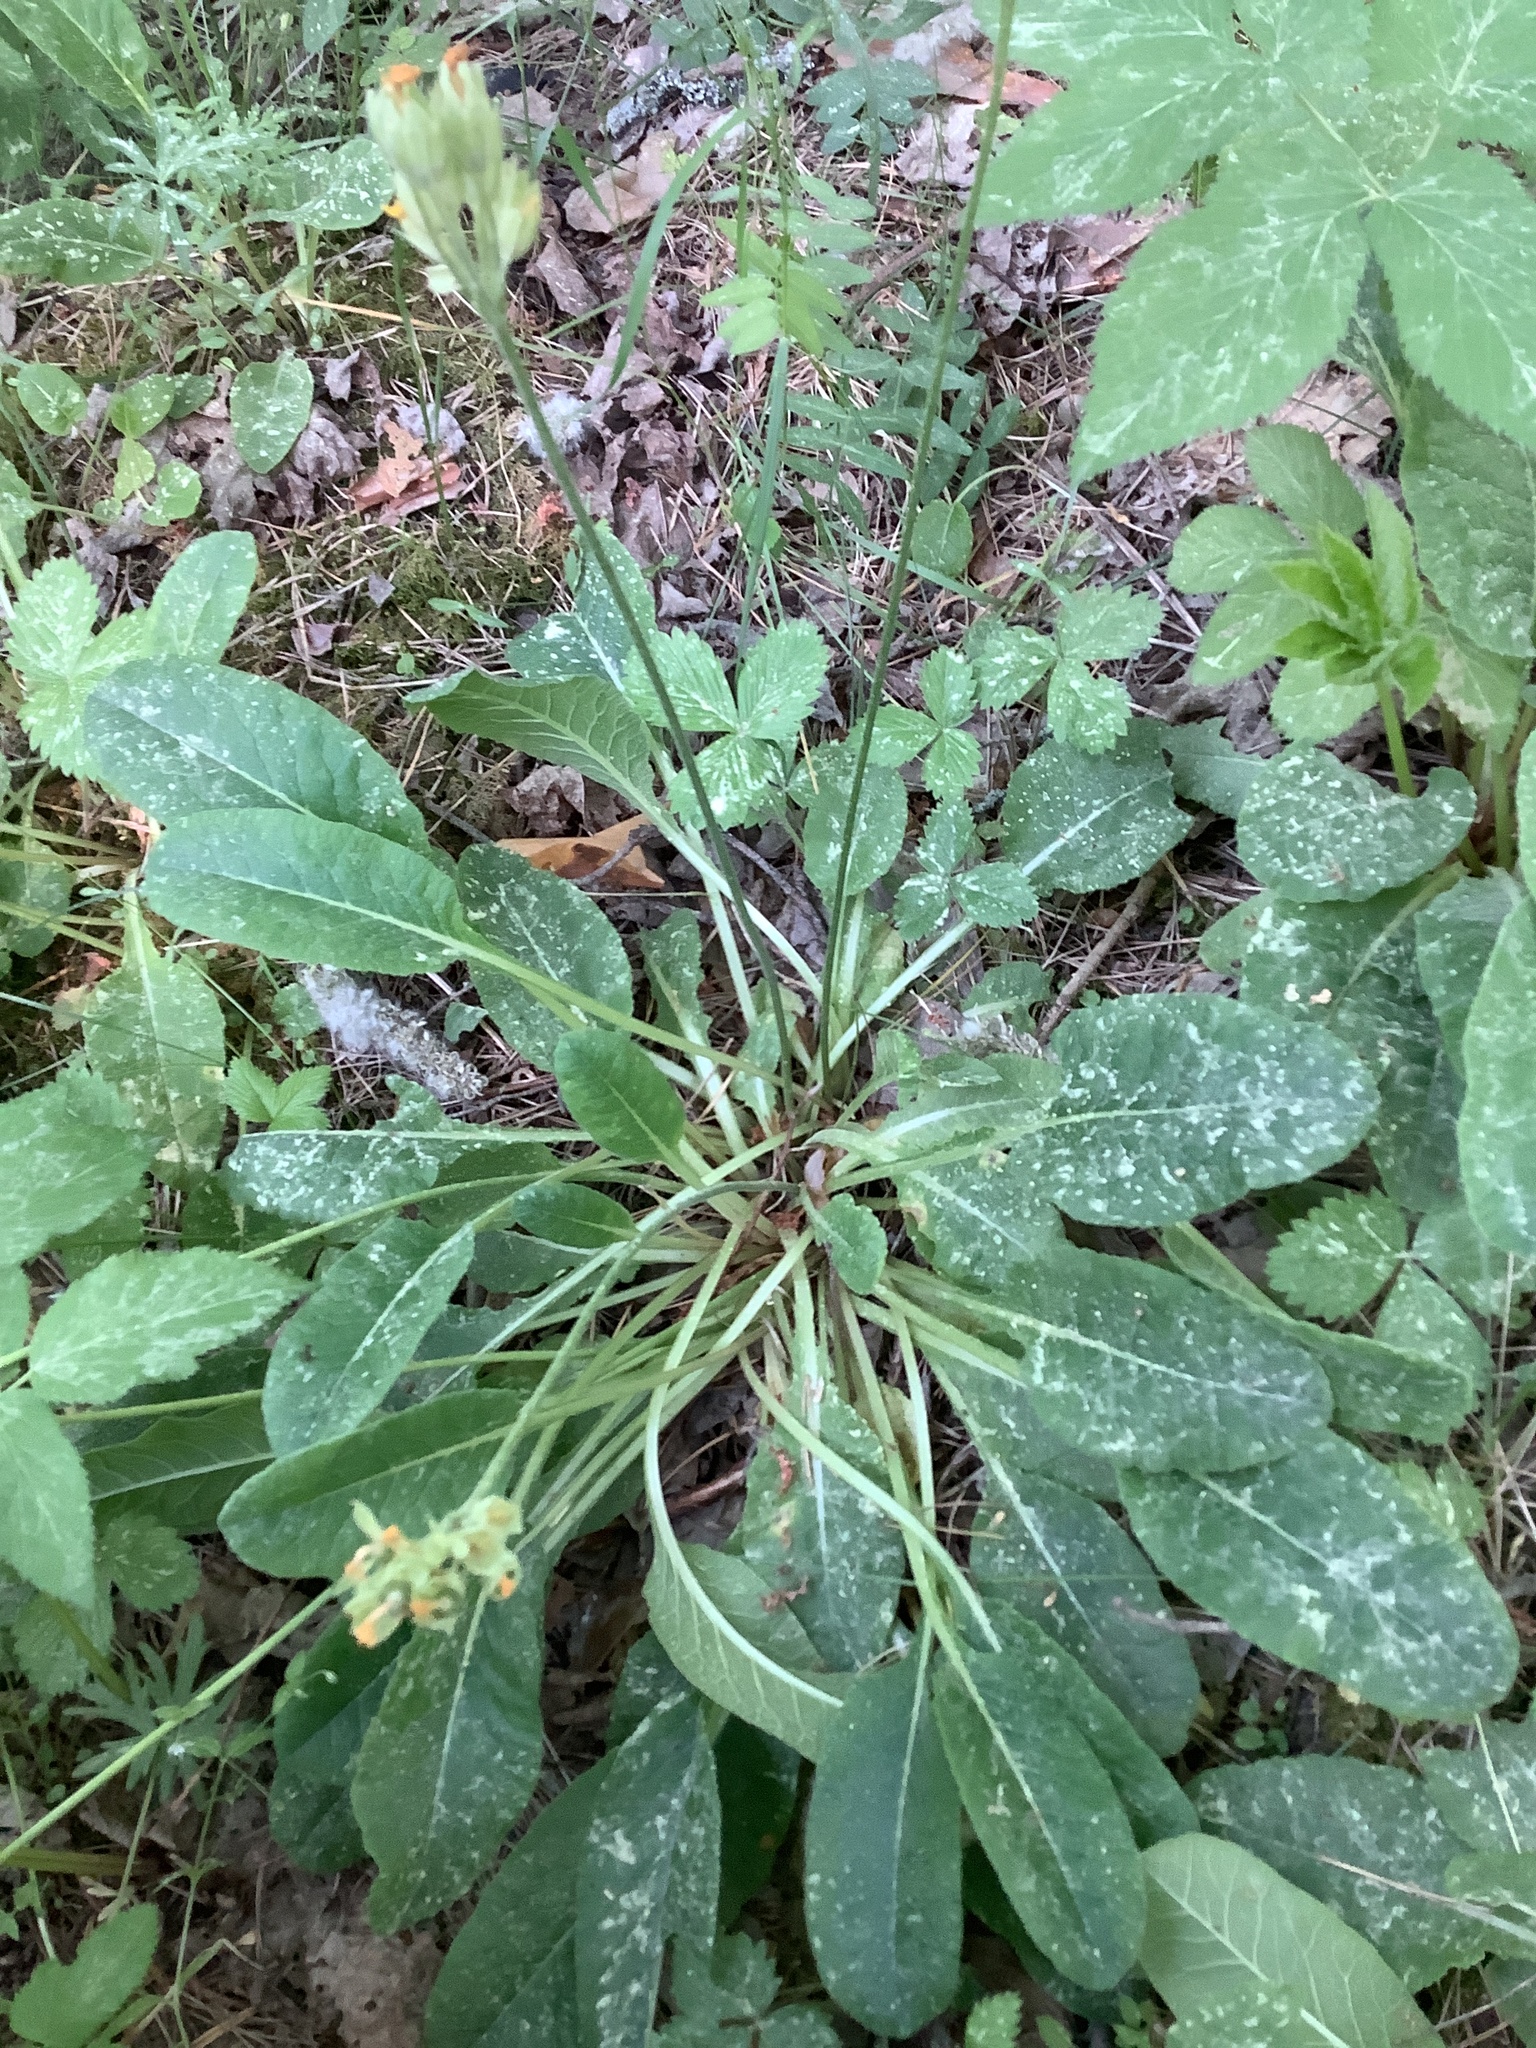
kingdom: Plantae
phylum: Tracheophyta
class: Magnoliopsida
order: Ericales
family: Primulaceae
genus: Primula
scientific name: Primula veris
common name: Cowslip
